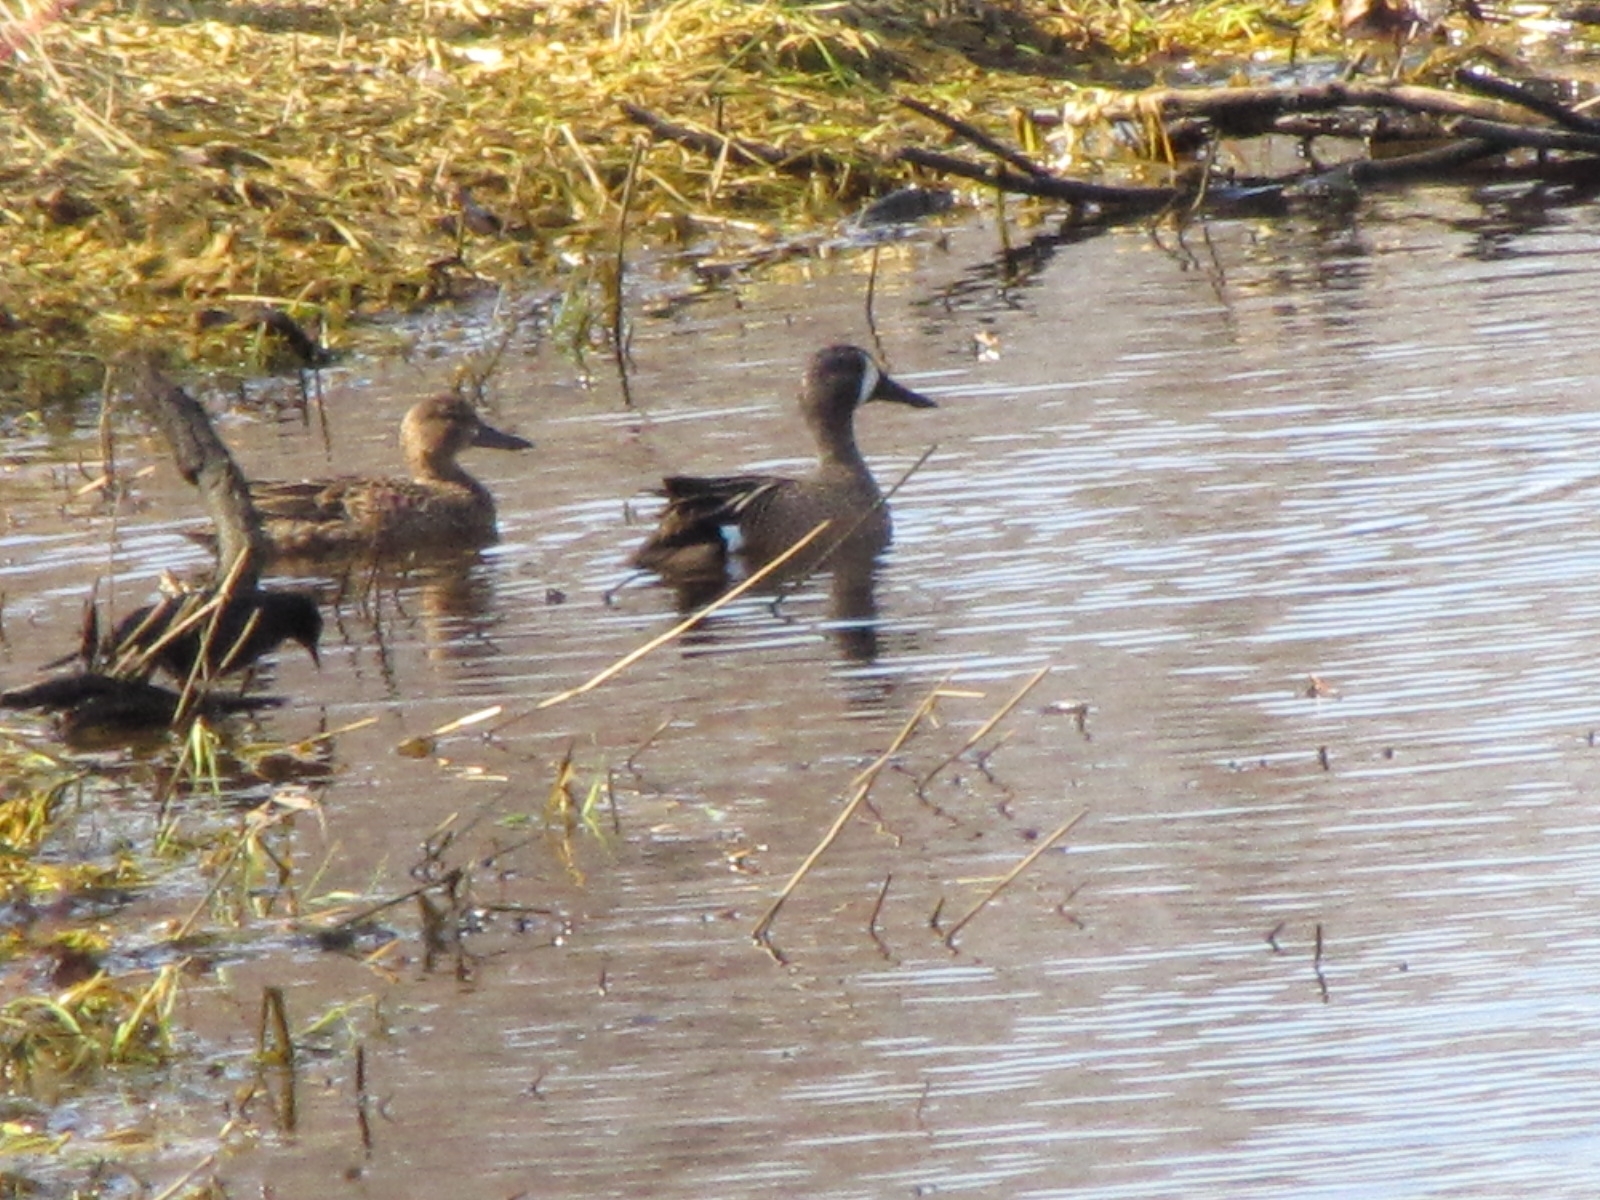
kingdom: Animalia
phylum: Chordata
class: Aves
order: Anseriformes
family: Anatidae
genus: Spatula
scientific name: Spatula discors
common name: Blue-winged teal
